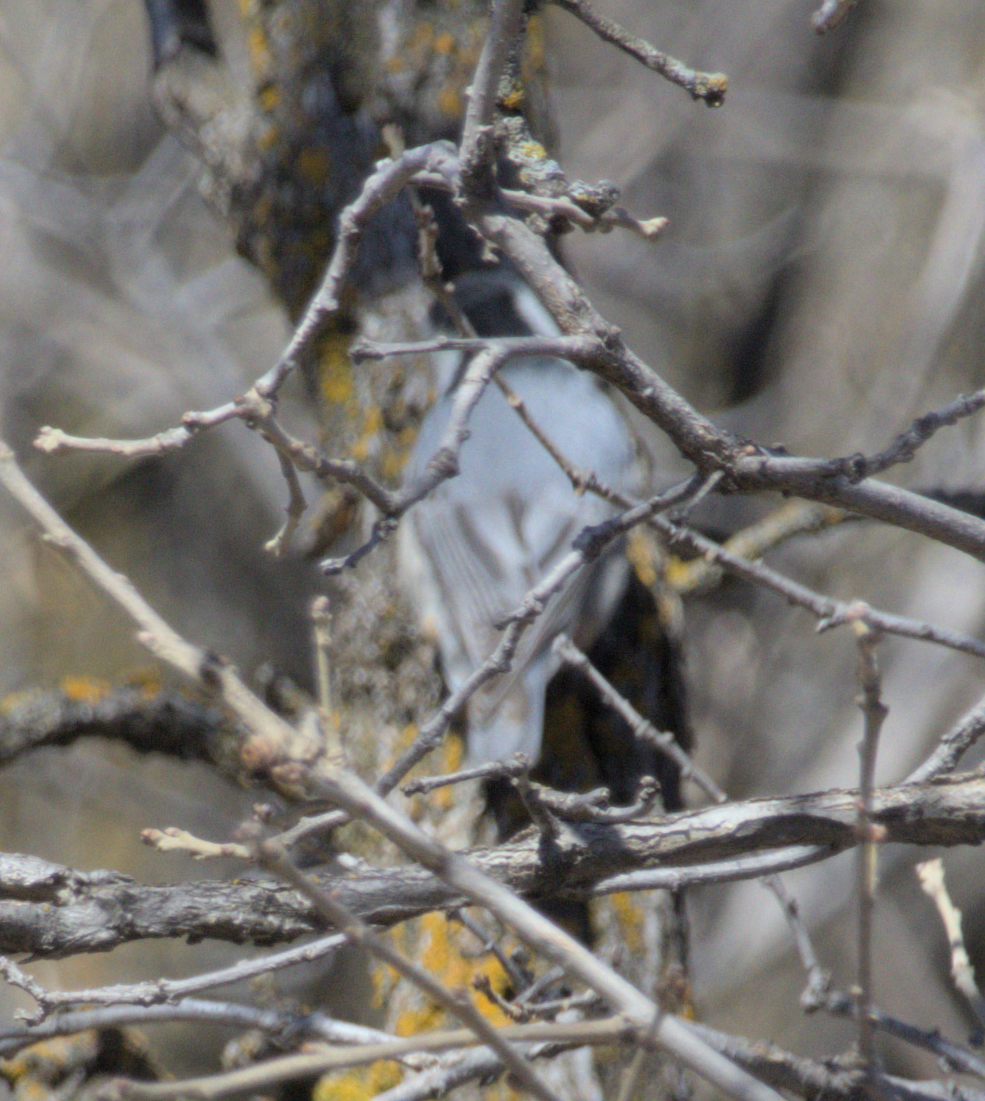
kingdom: Animalia
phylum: Chordata
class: Aves
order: Passeriformes
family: Sittidae
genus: Sitta
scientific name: Sitta carolinensis
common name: White-breasted nuthatch
